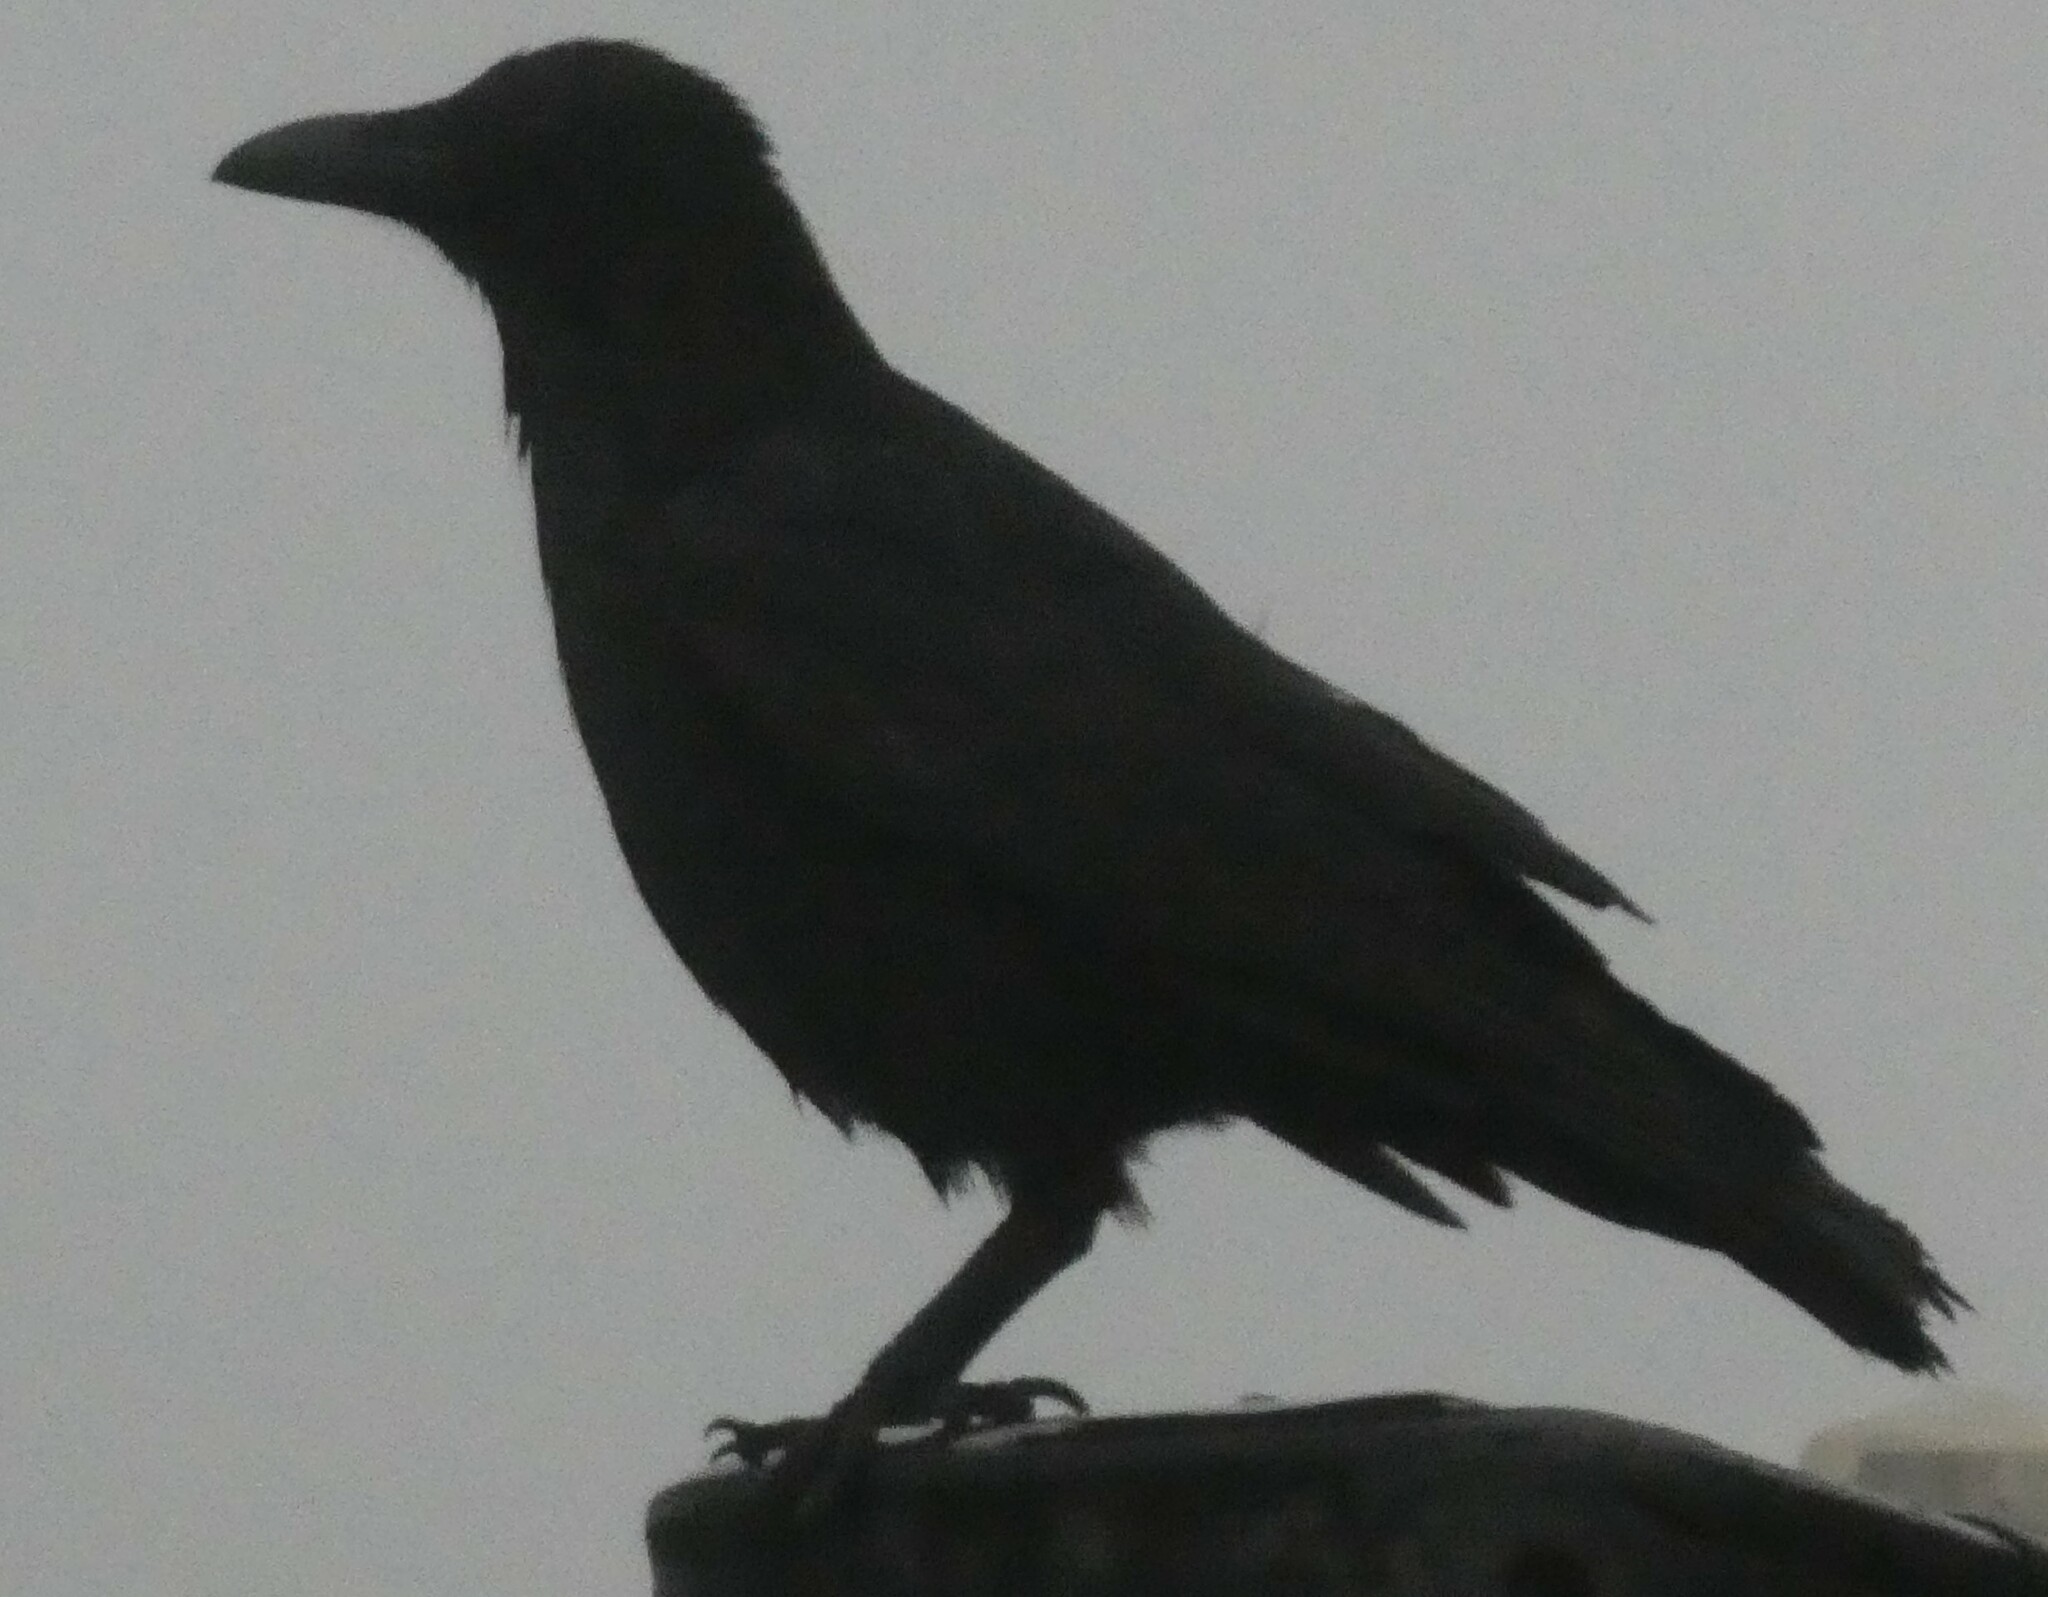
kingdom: Animalia
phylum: Chordata
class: Aves
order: Passeriformes
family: Corvidae
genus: Corvus
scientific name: Corvus corone
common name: Carrion crow
